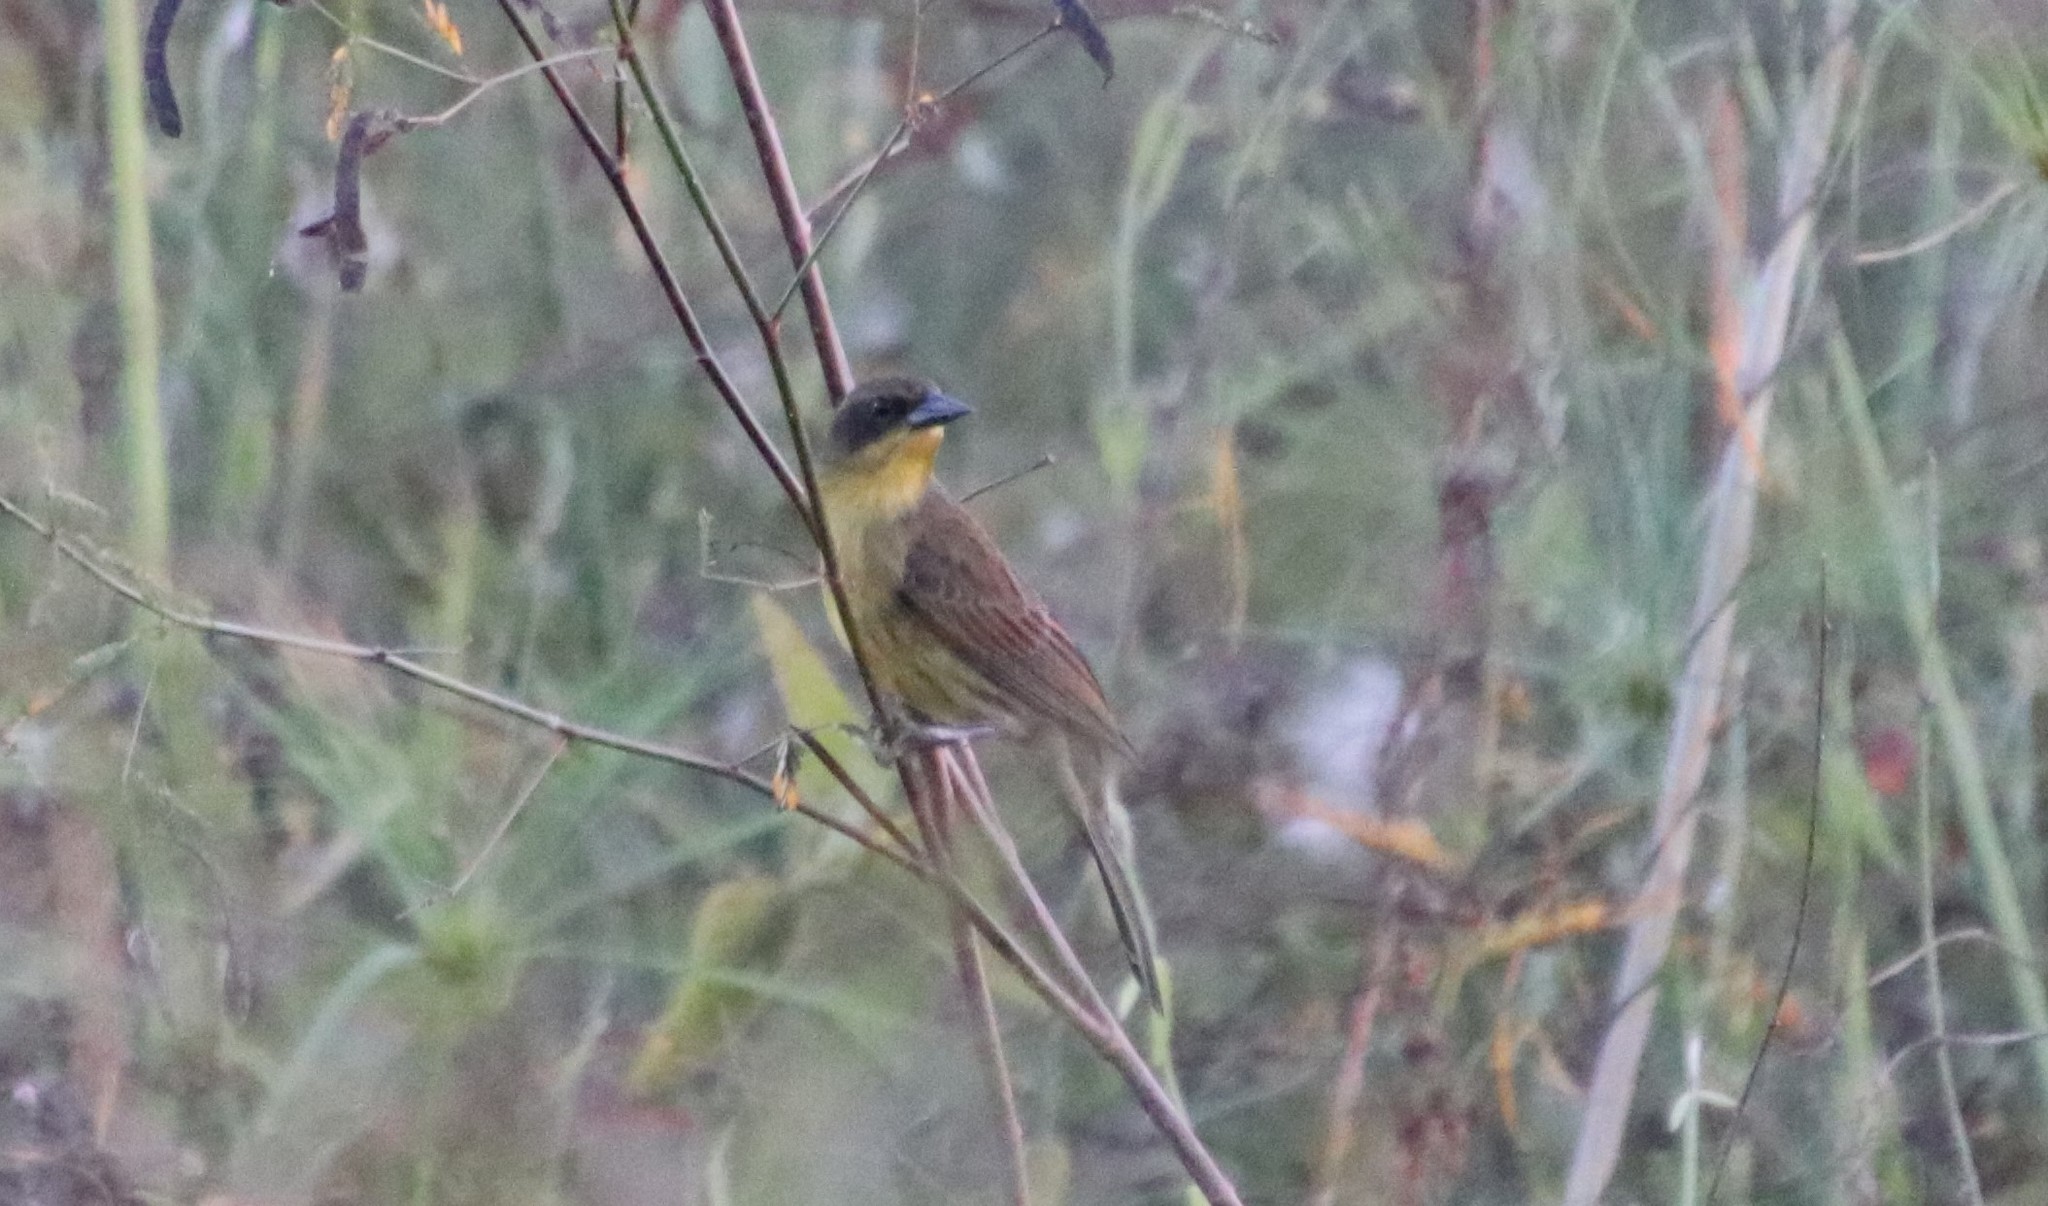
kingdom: Animalia
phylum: Chordata
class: Aves
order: Passeriformes
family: Icteridae
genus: Agelasticus
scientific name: Agelasticus cyanopus
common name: Unicolored blackbird
